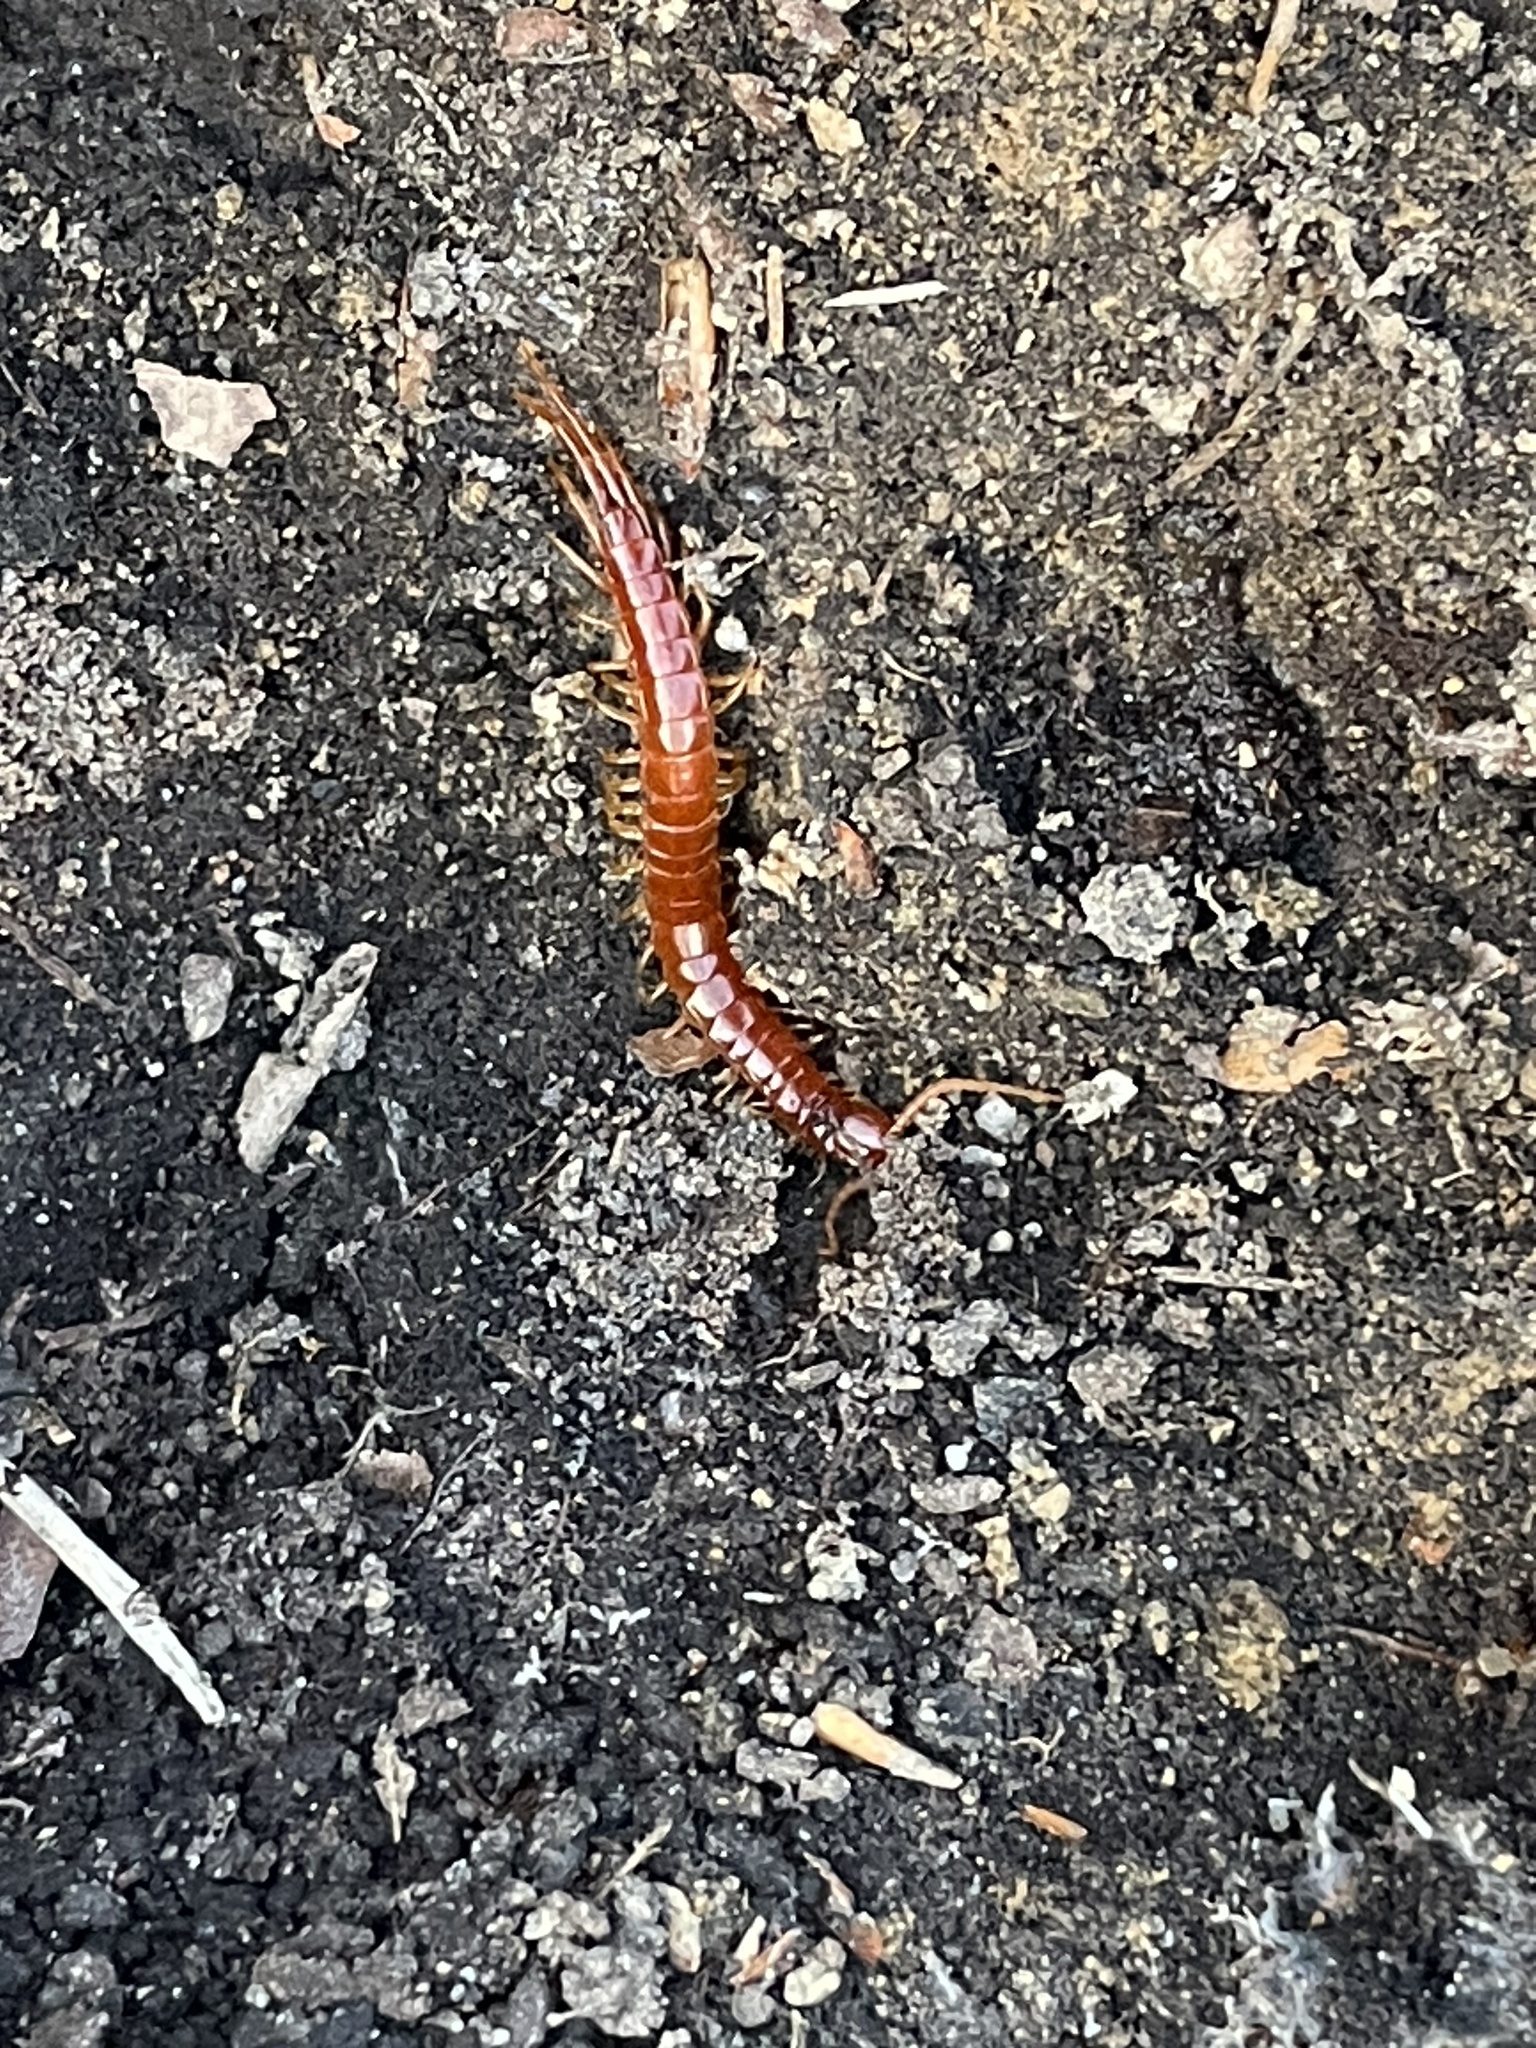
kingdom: Animalia
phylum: Arthropoda
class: Chilopoda
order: Scolopendromorpha
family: Scolopocryptopidae
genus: Scolopocryptops
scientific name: Scolopocryptops sexspinosus
